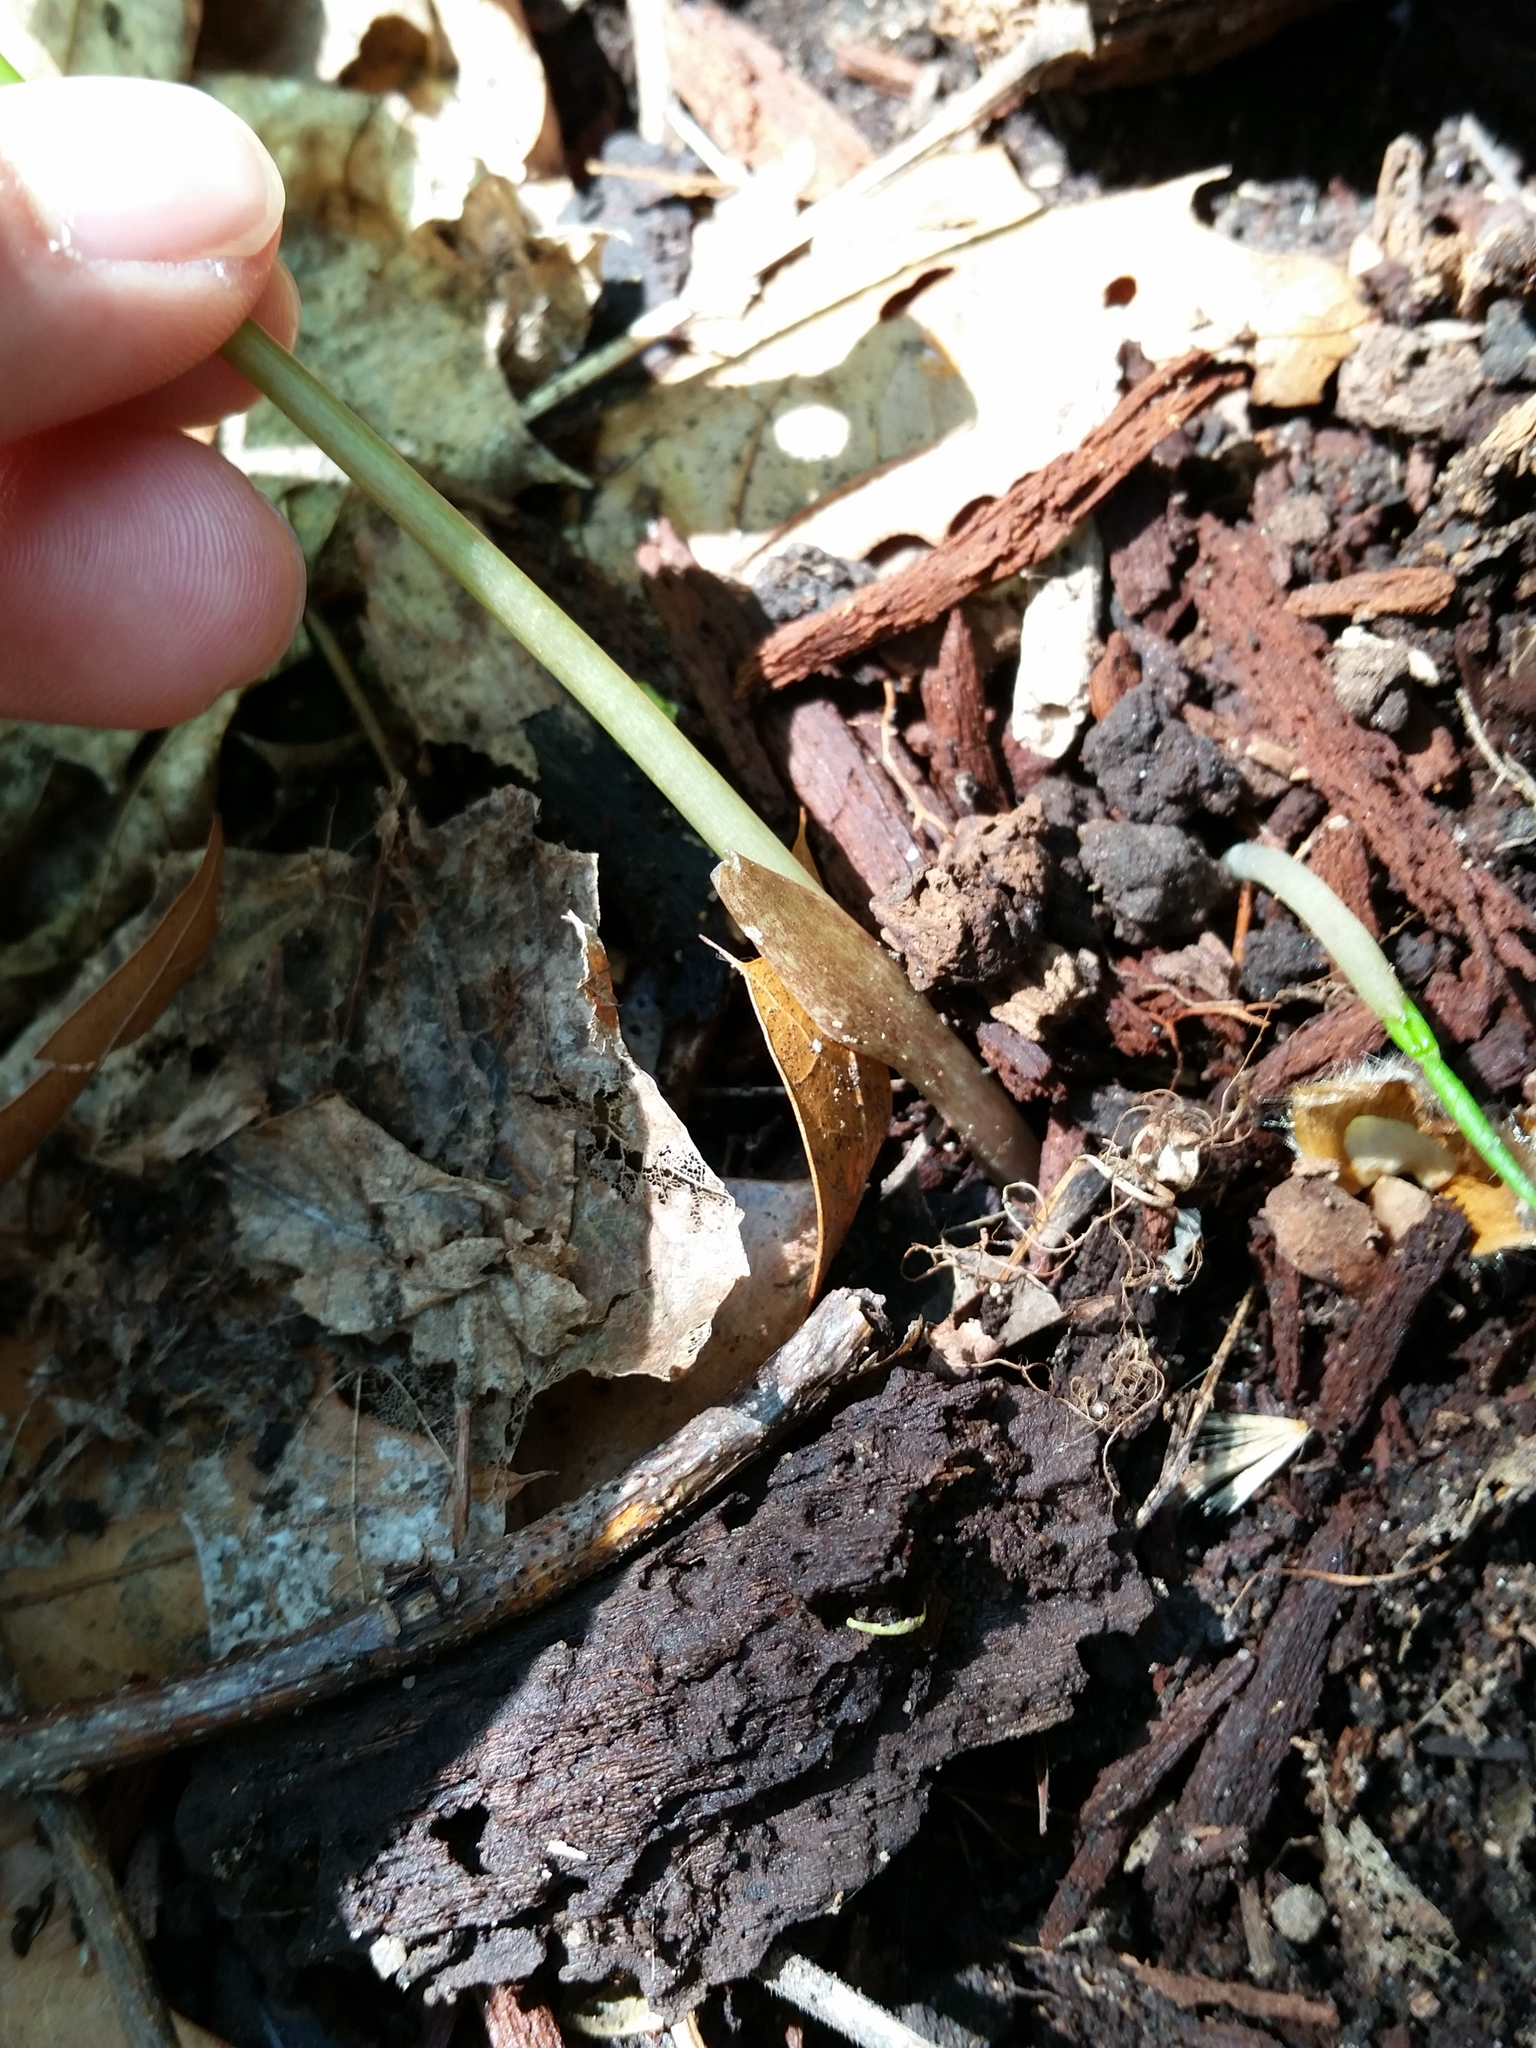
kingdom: Plantae
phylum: Tracheophyta
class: Liliopsida
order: Alismatales
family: Araceae
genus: Arisaema
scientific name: Arisaema triphyllum
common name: Jack-in-the-pulpit
